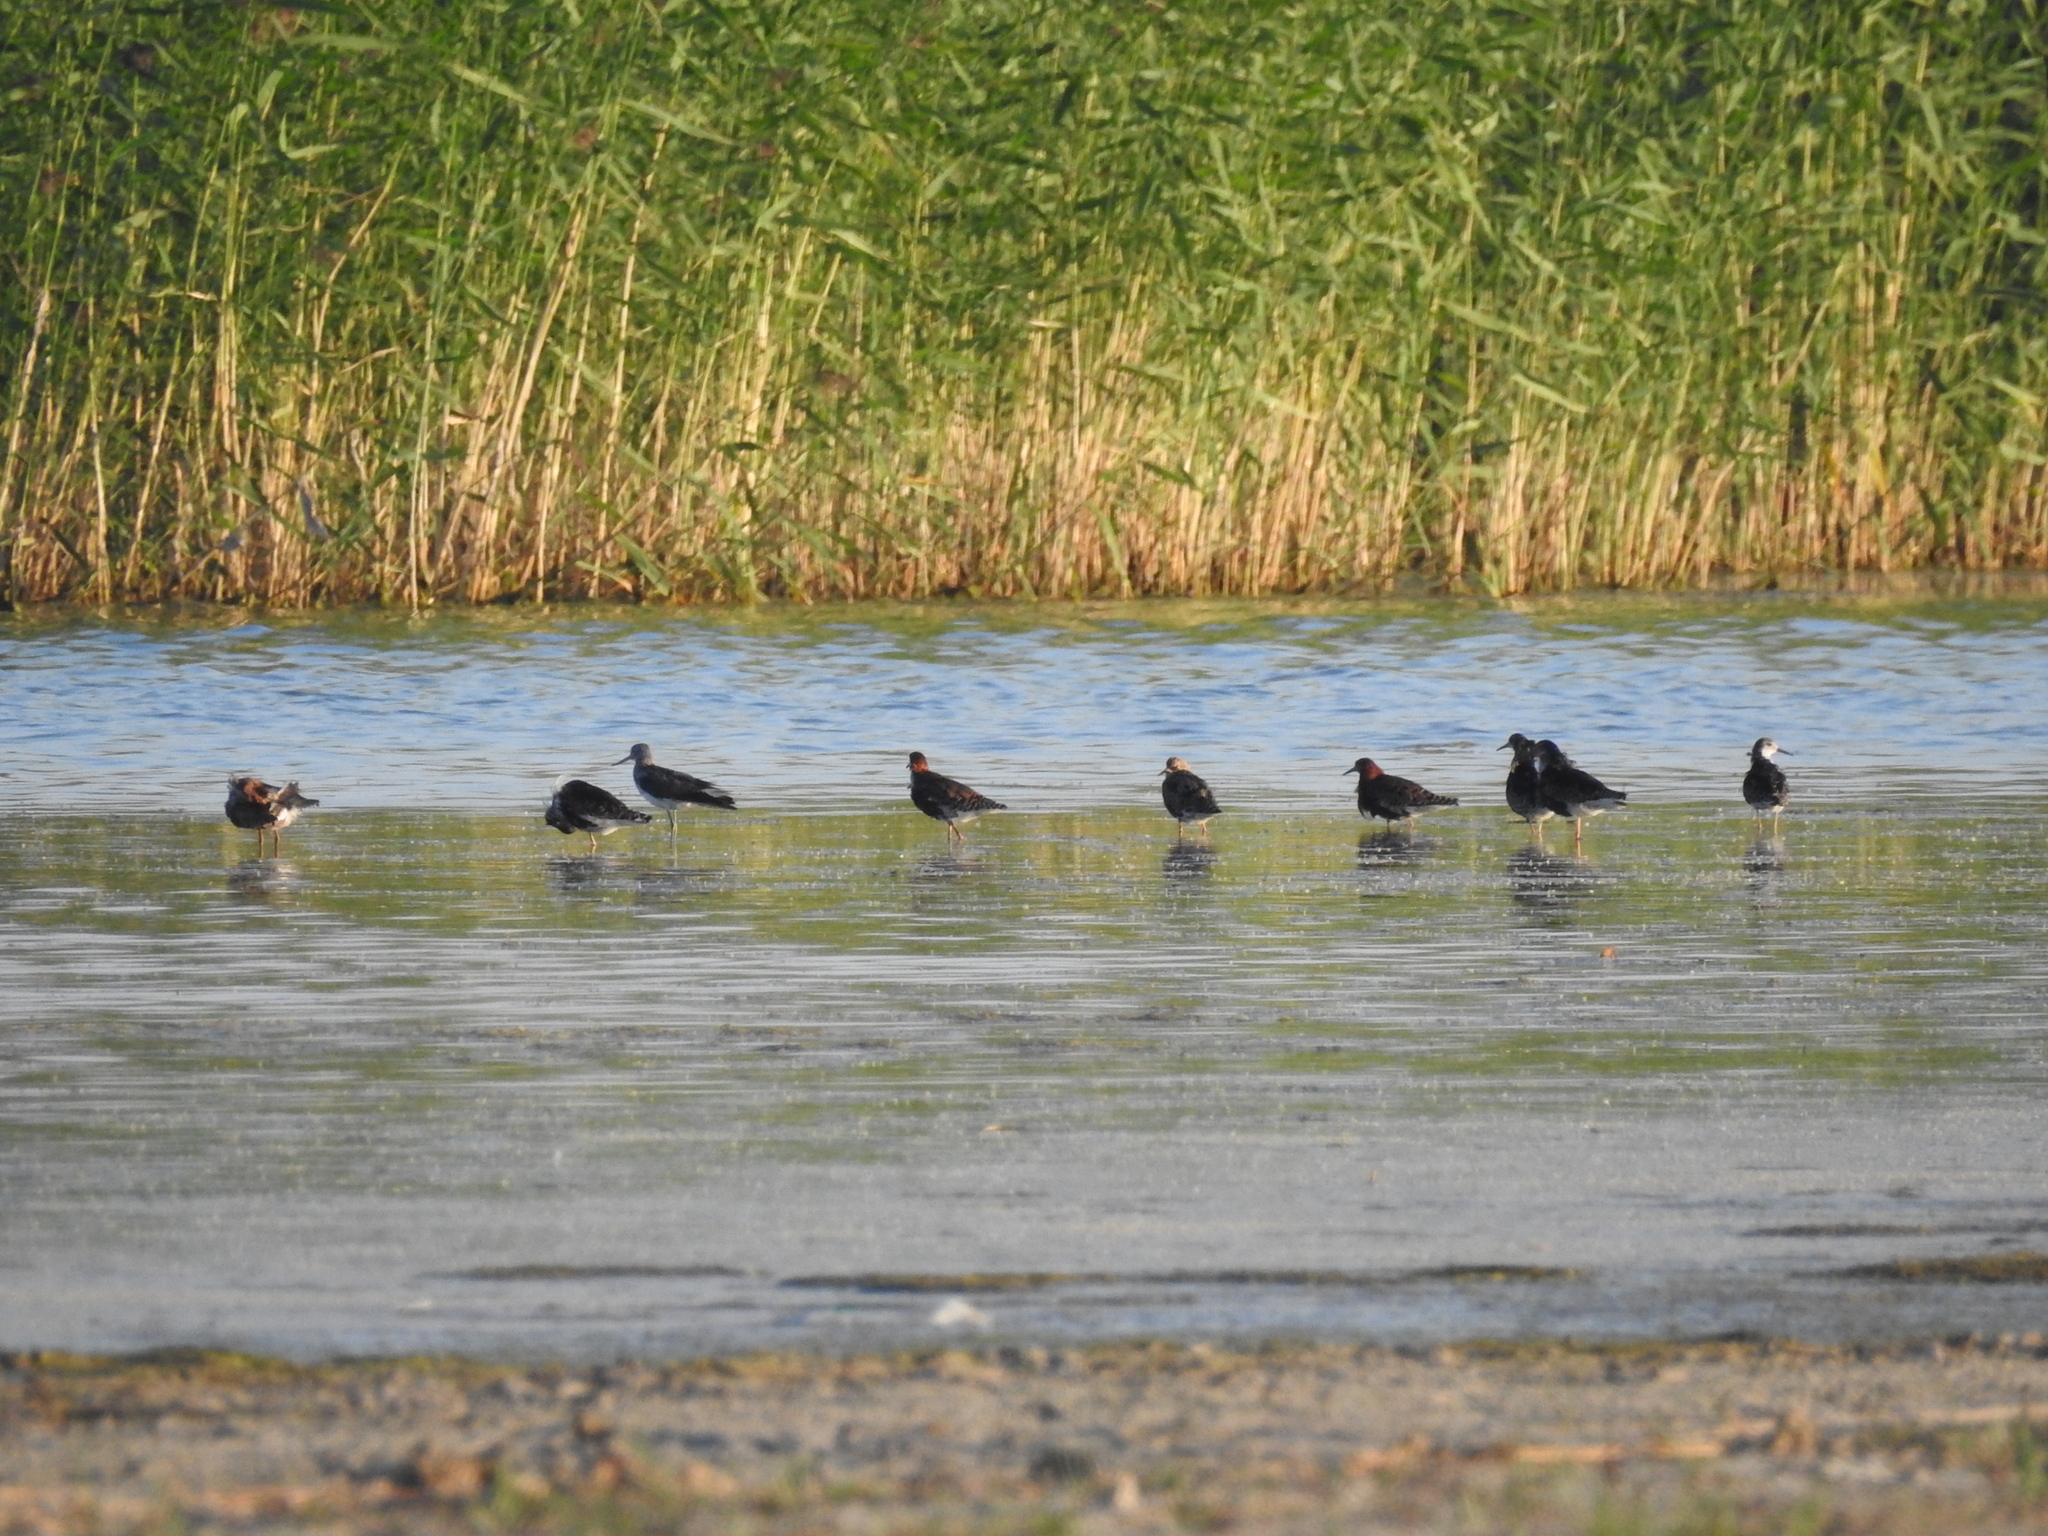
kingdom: Animalia
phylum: Chordata
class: Aves
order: Charadriiformes
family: Scolopacidae
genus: Calidris
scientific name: Calidris pugnax
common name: Ruff
